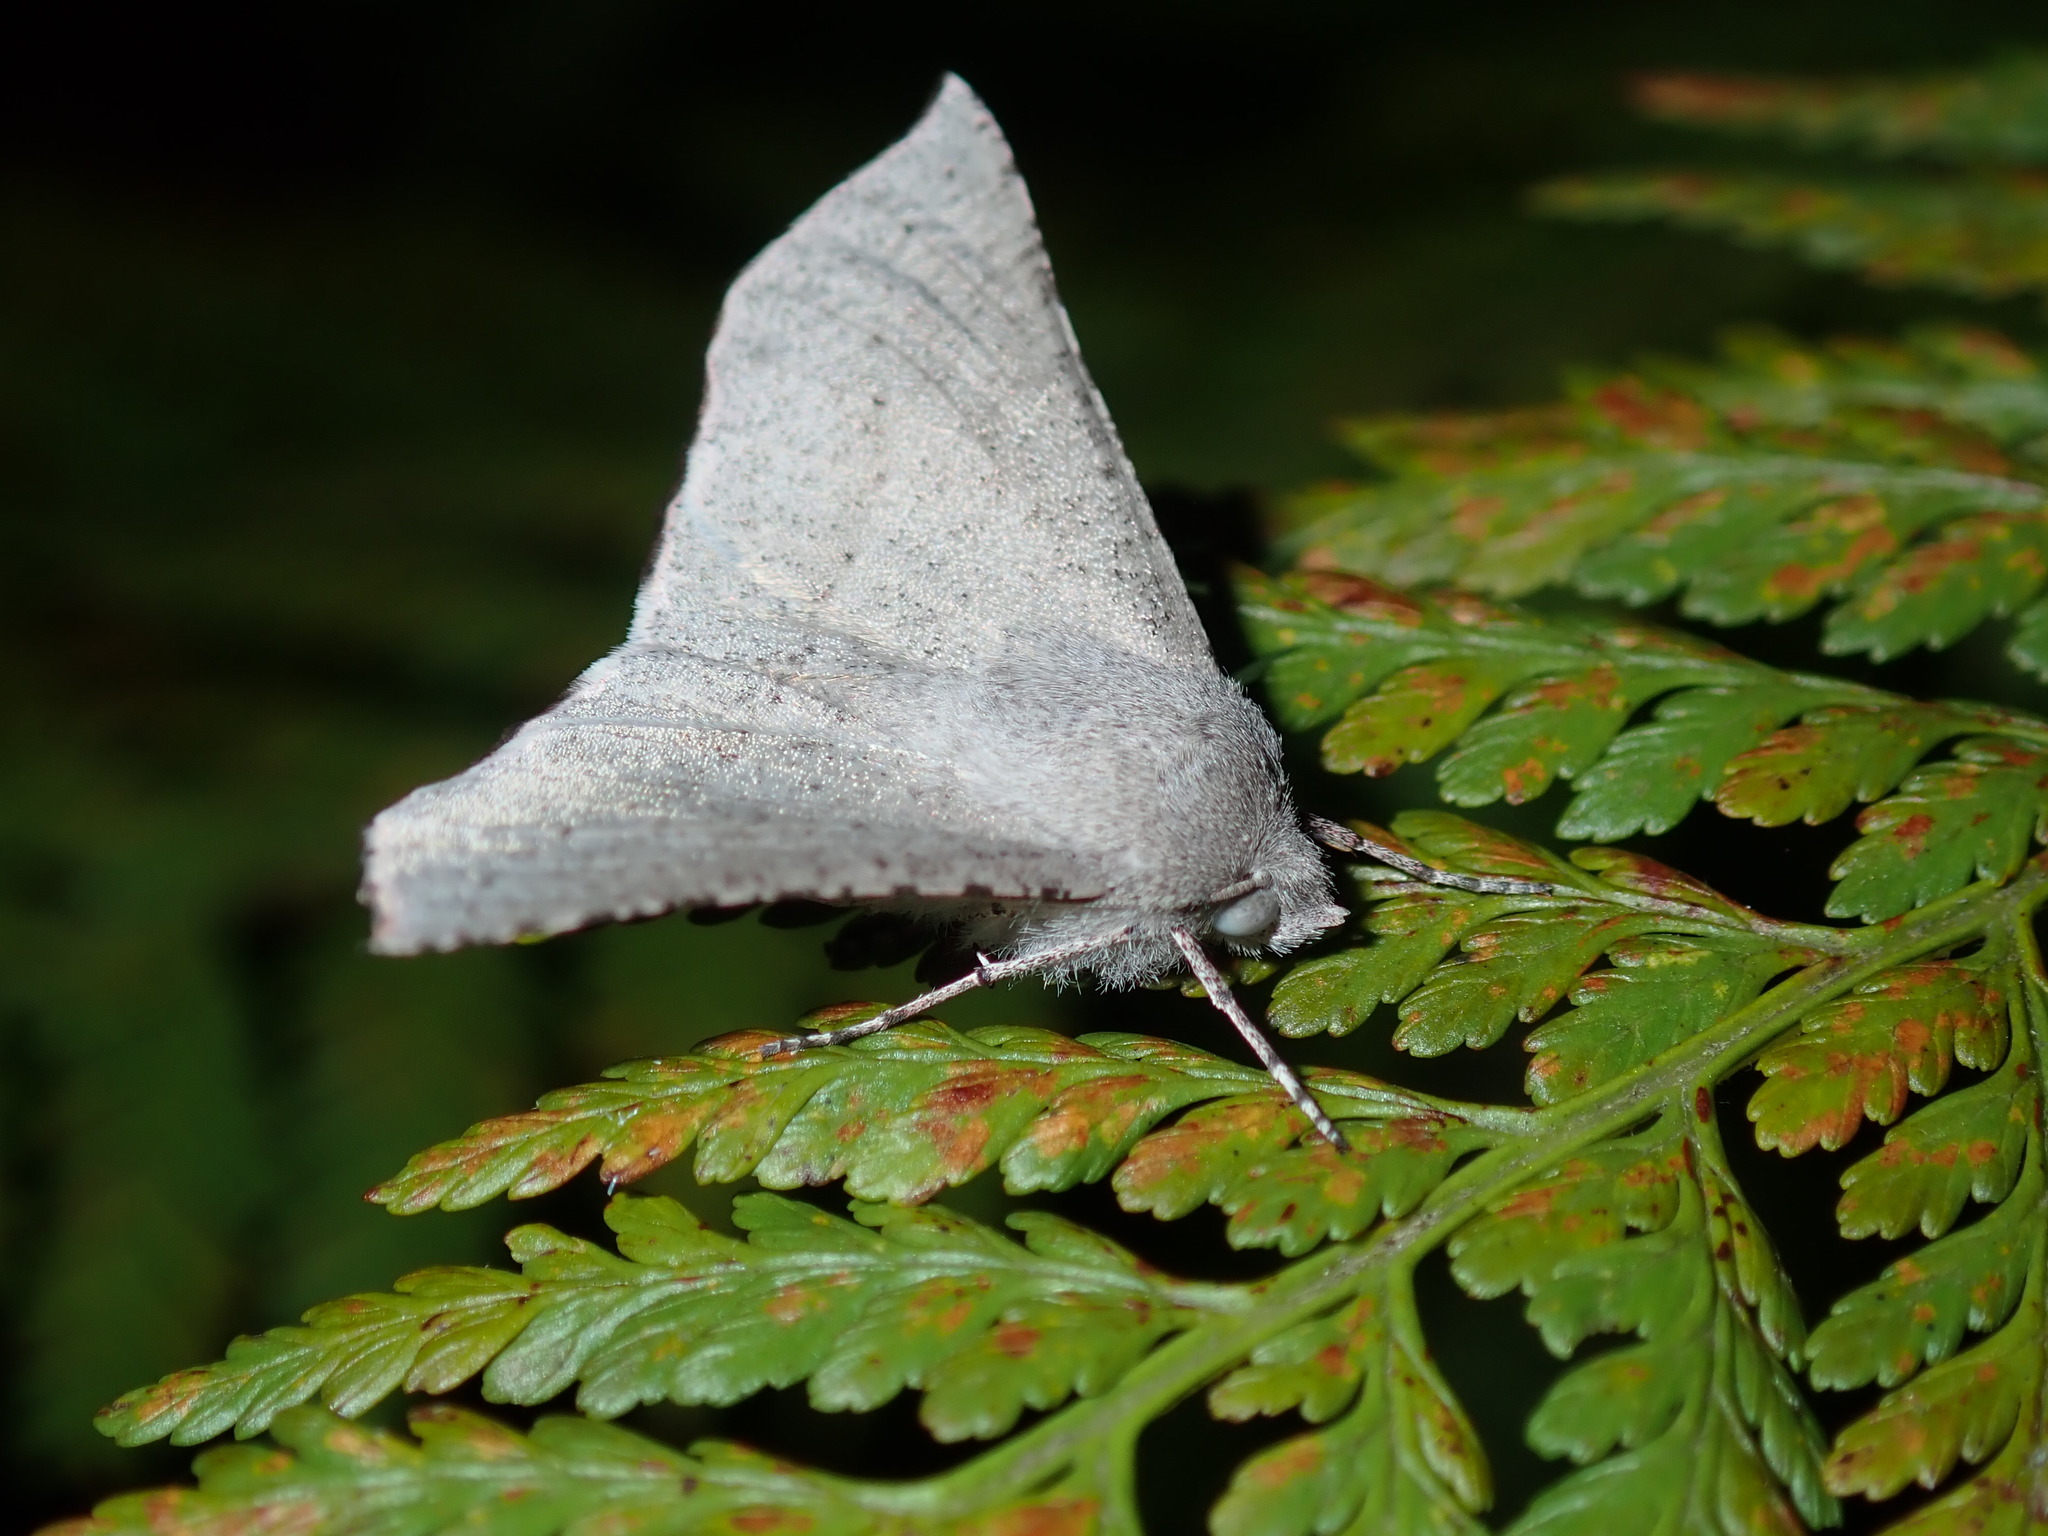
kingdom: Animalia
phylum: Arthropoda
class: Insecta
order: Lepidoptera
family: Geometridae
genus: Oenochroma
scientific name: Oenochroma subustaria
